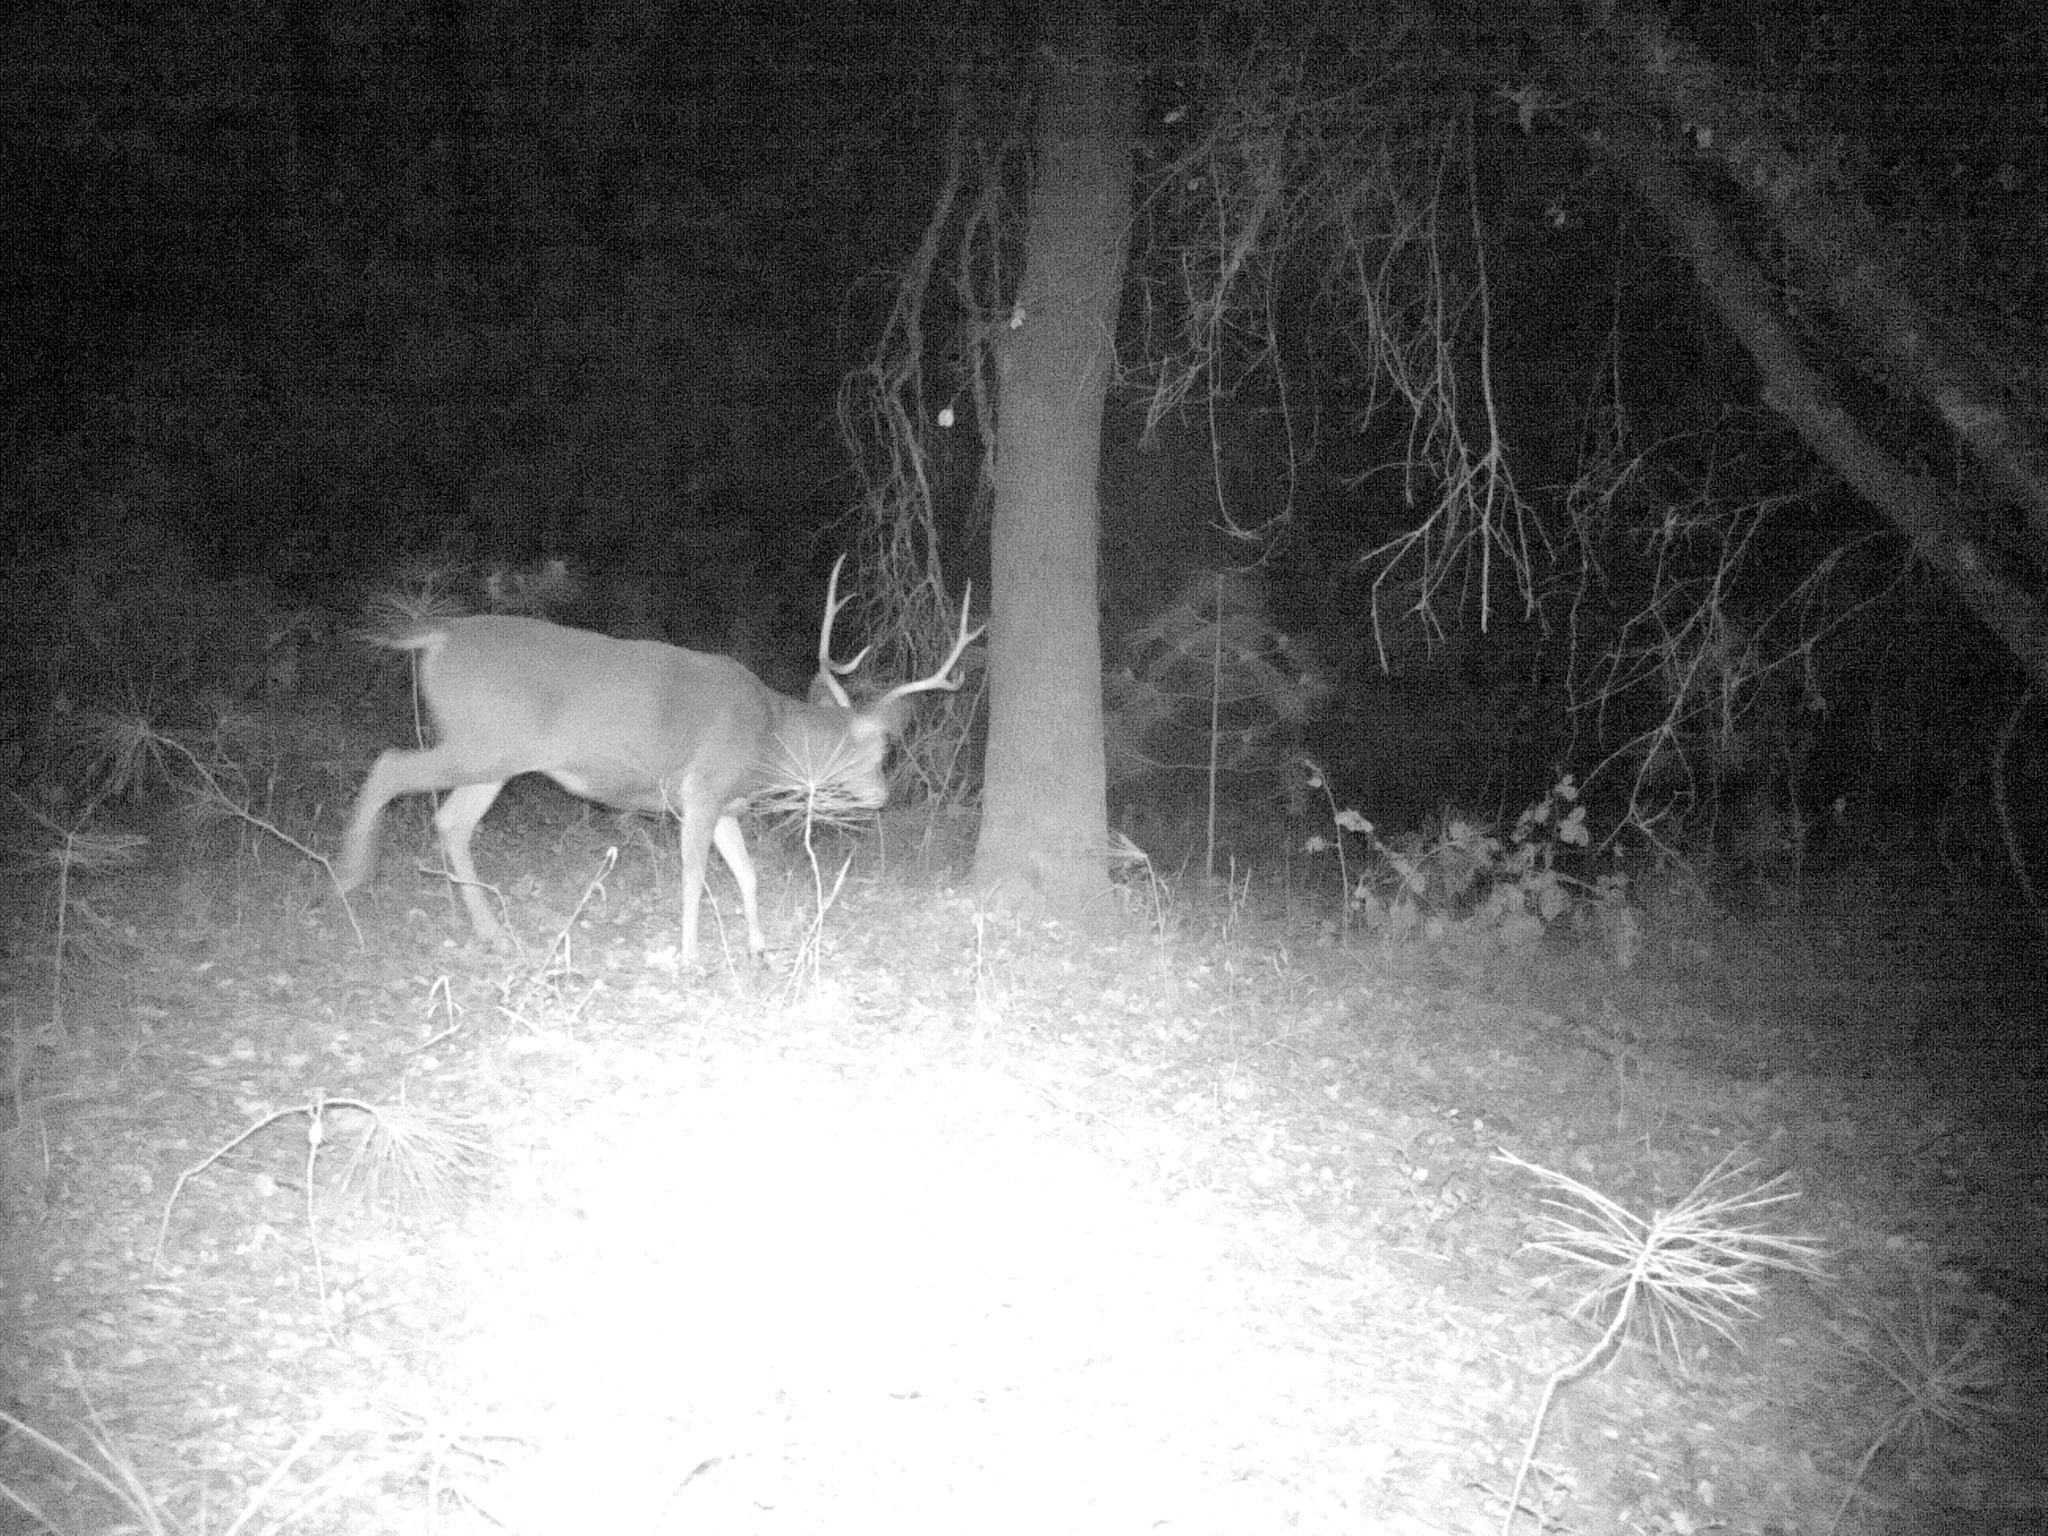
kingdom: Animalia
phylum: Chordata
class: Mammalia
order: Artiodactyla
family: Cervidae
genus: Odocoileus
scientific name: Odocoileus hemionus
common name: Mule deer
